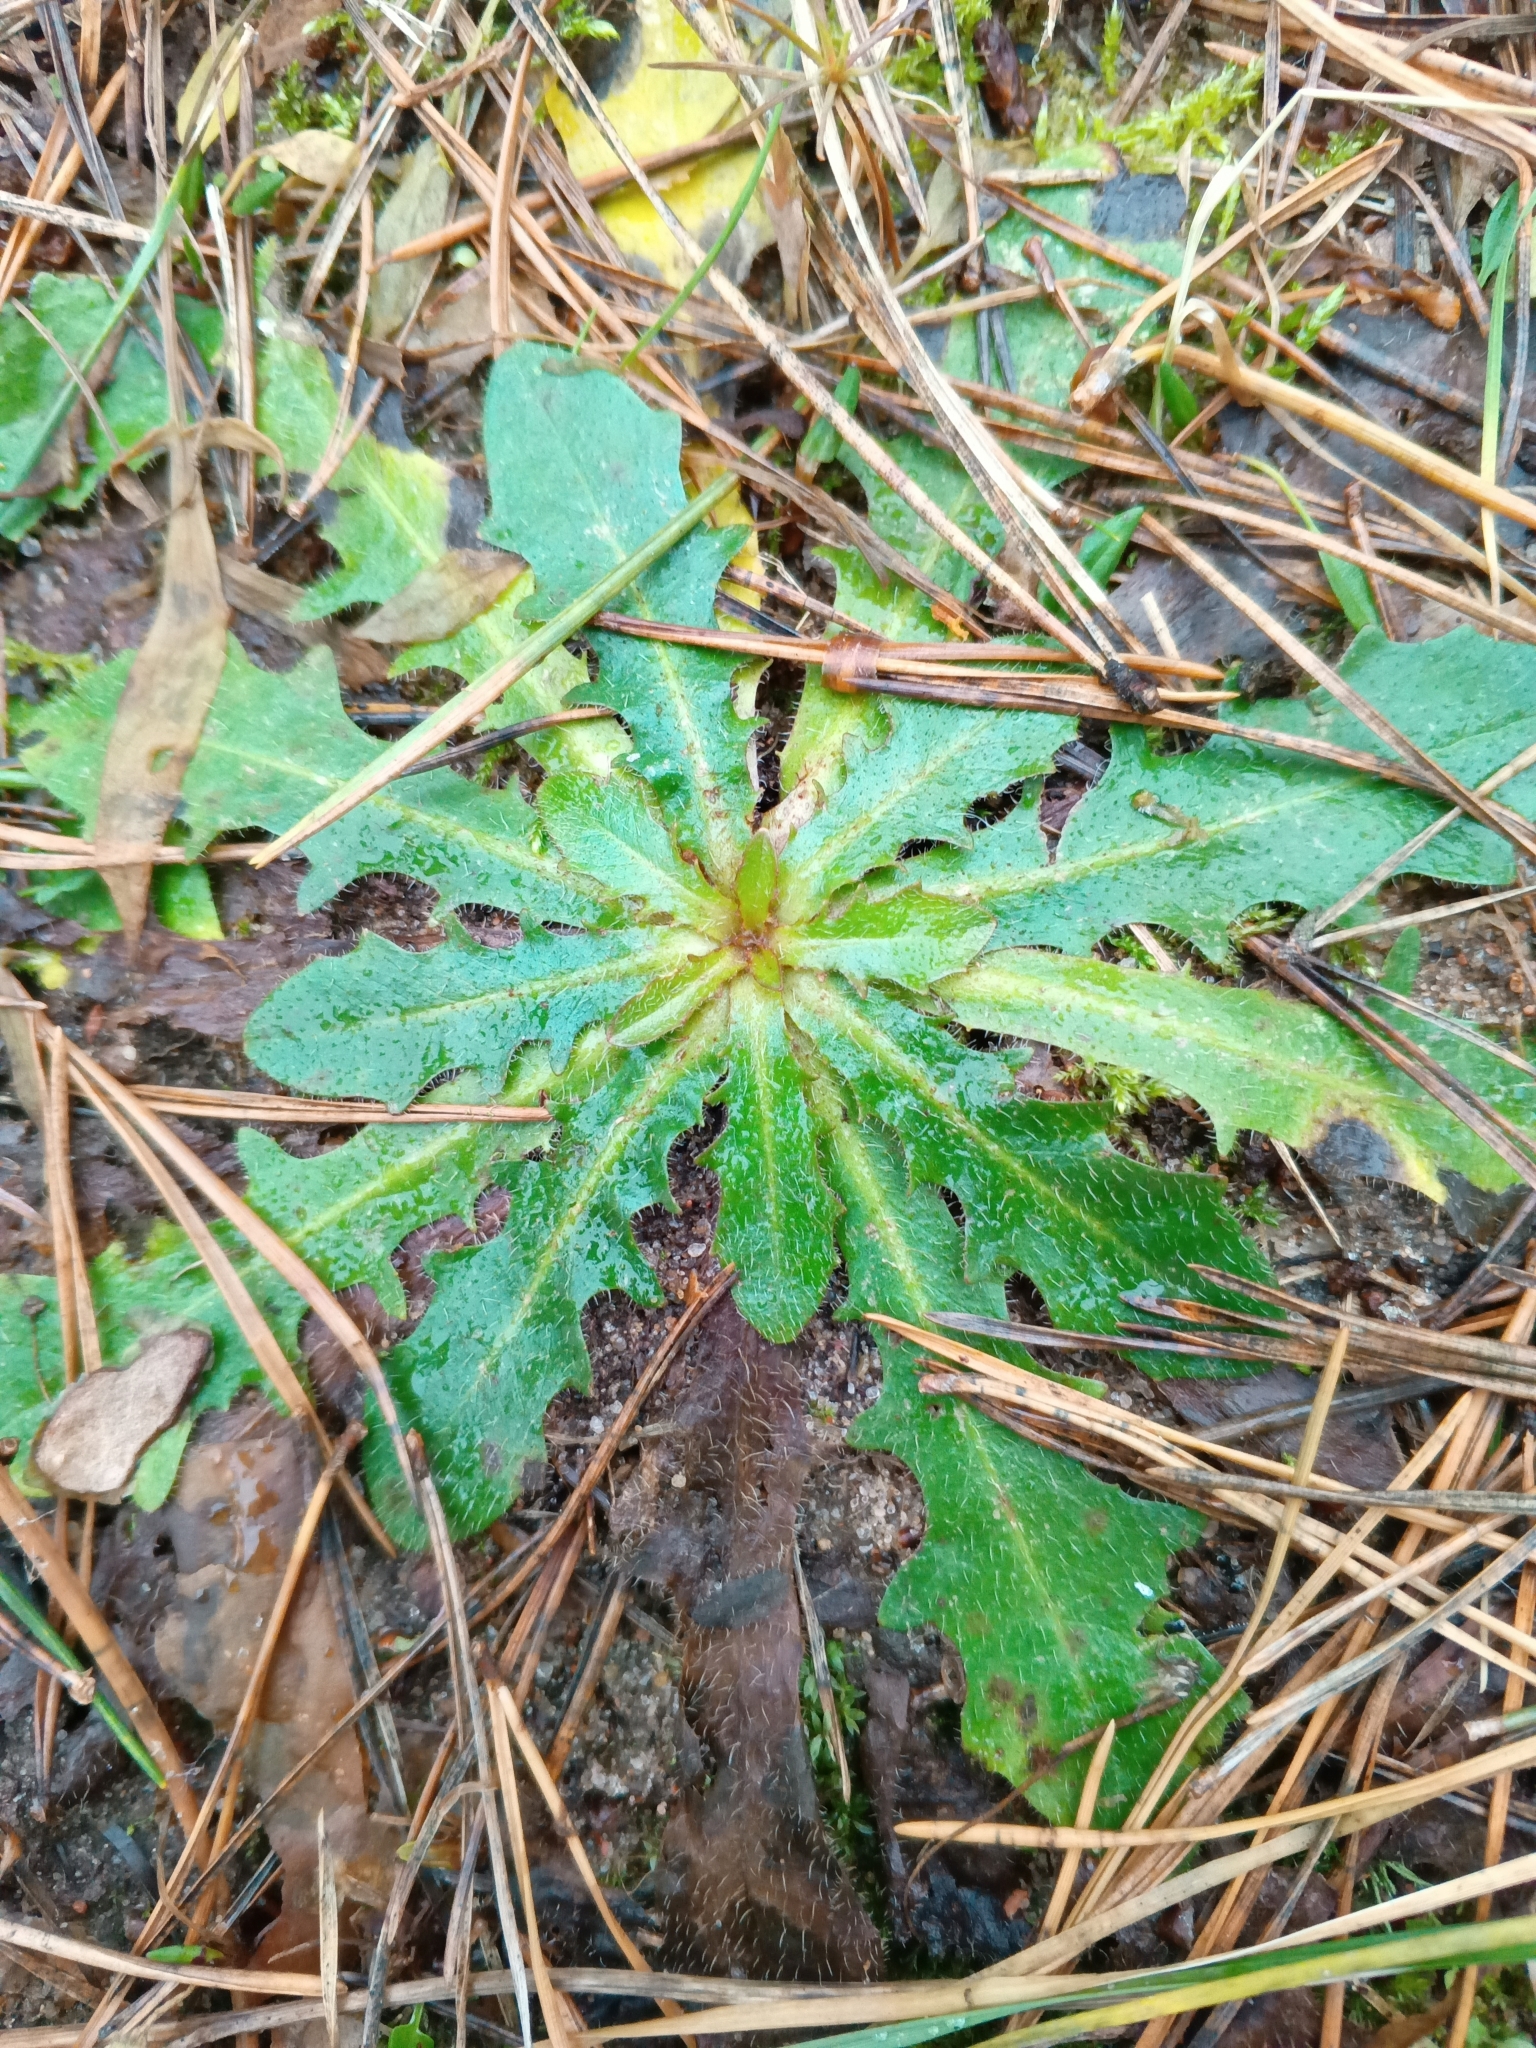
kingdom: Plantae
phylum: Tracheophyta
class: Magnoliopsida
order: Asterales
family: Asteraceae
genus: Hypochaeris
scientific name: Hypochaeris radicata
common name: Flatweed
